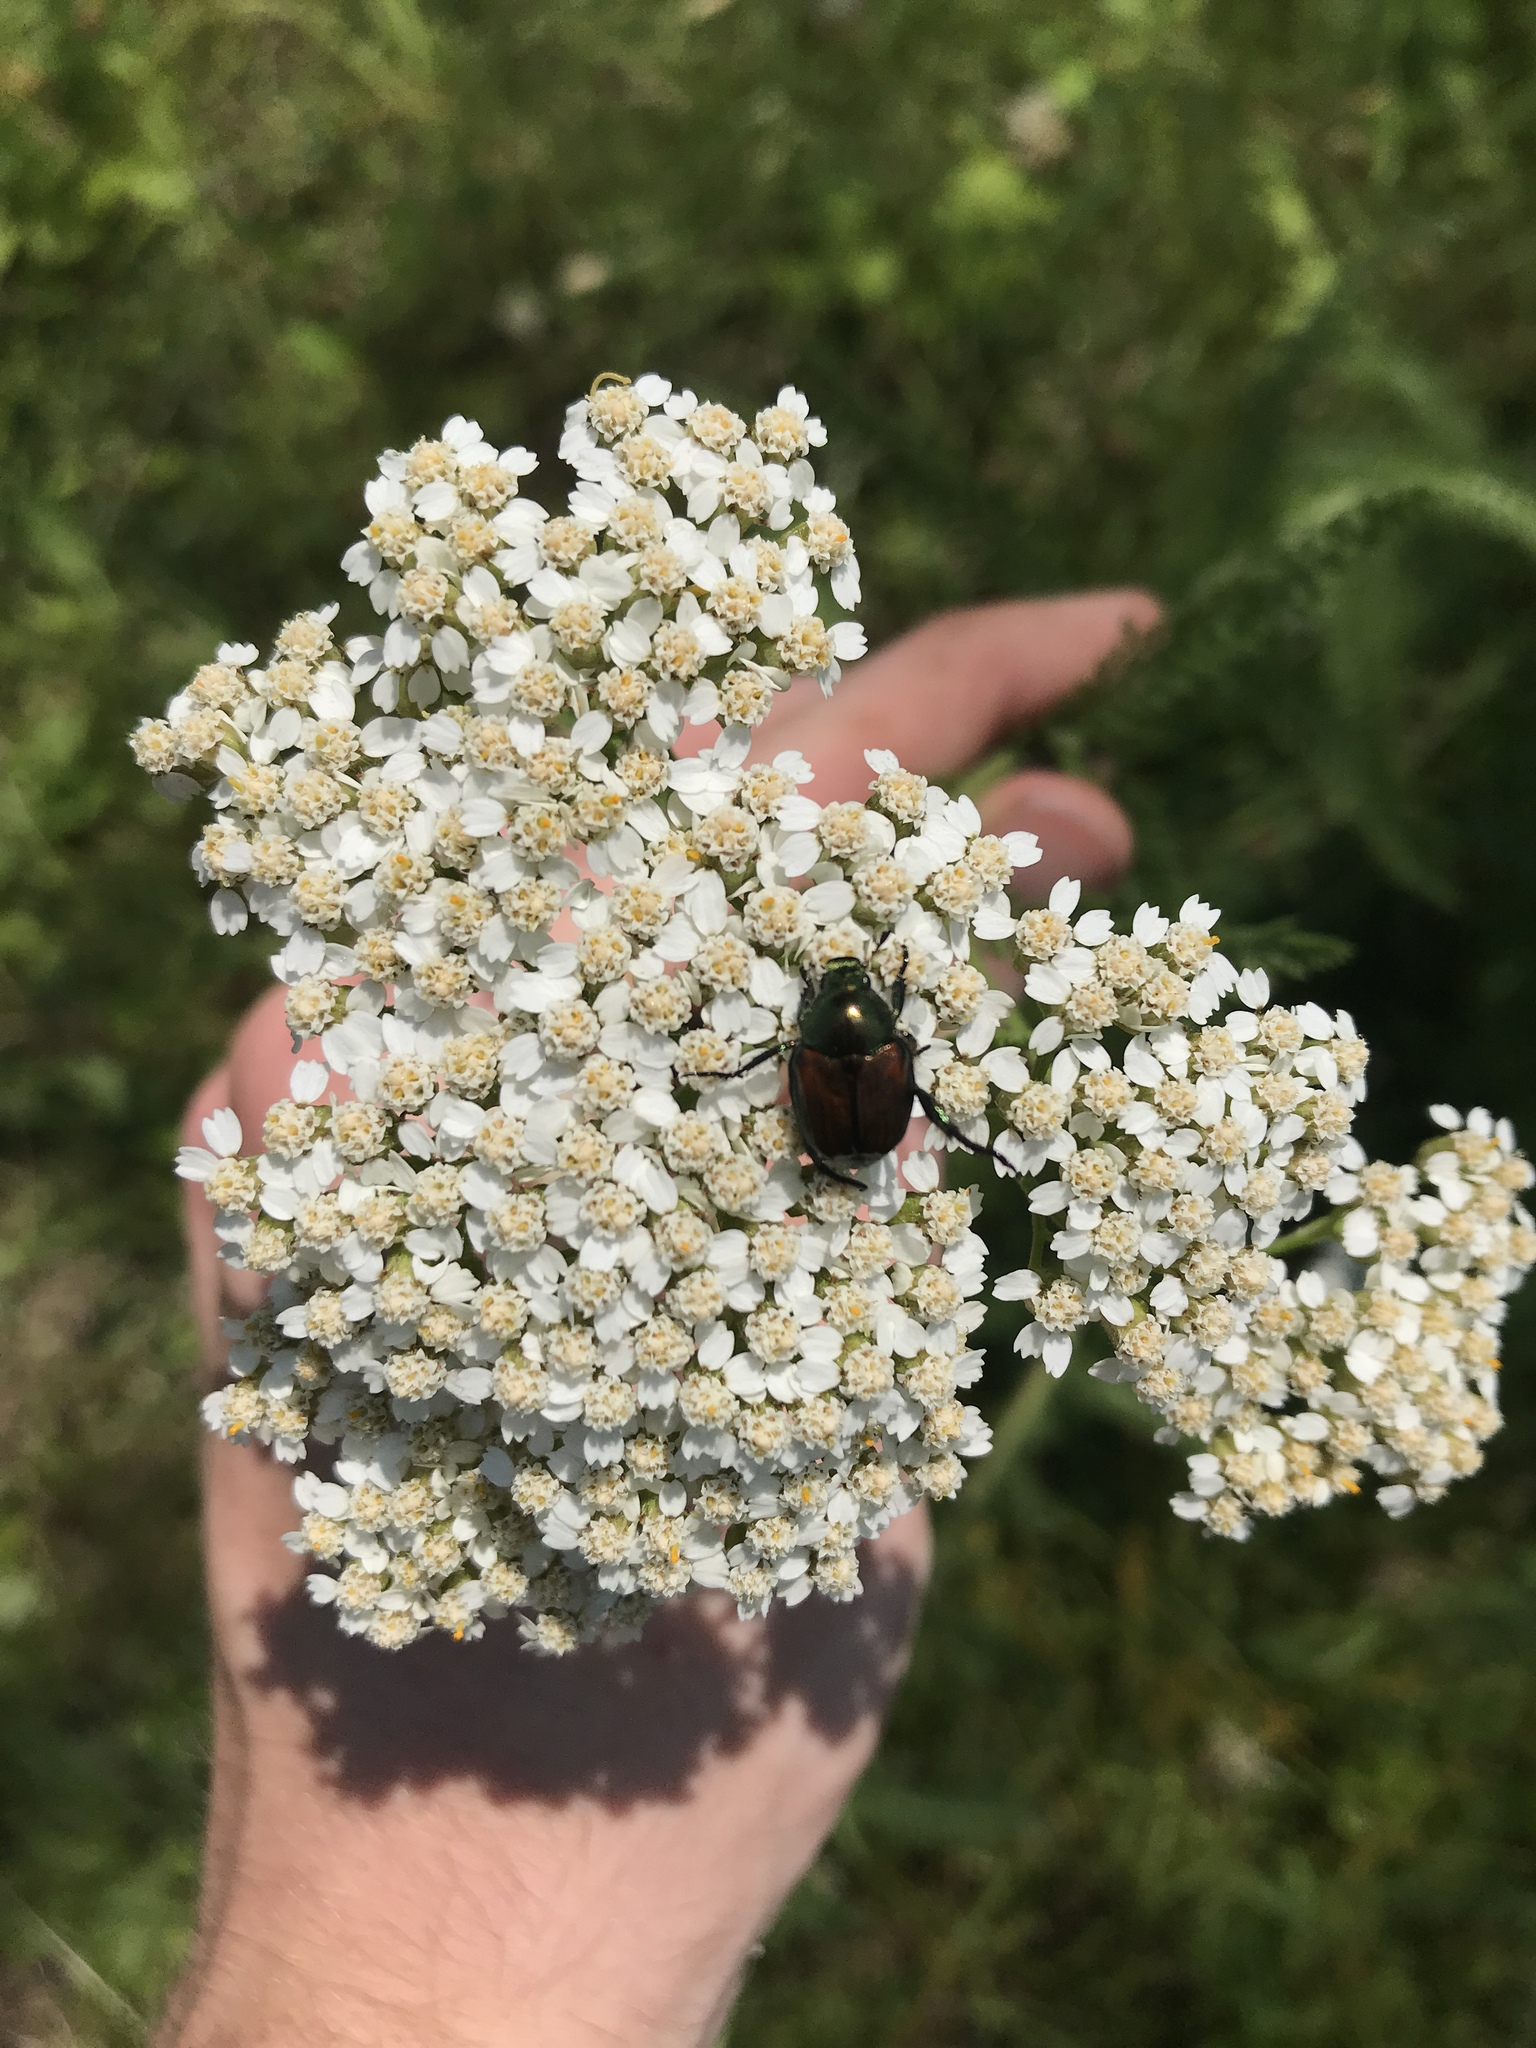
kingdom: Animalia
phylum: Arthropoda
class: Insecta
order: Coleoptera
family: Scarabaeidae
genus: Popillia
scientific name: Popillia japonica
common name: Japanese beetle
